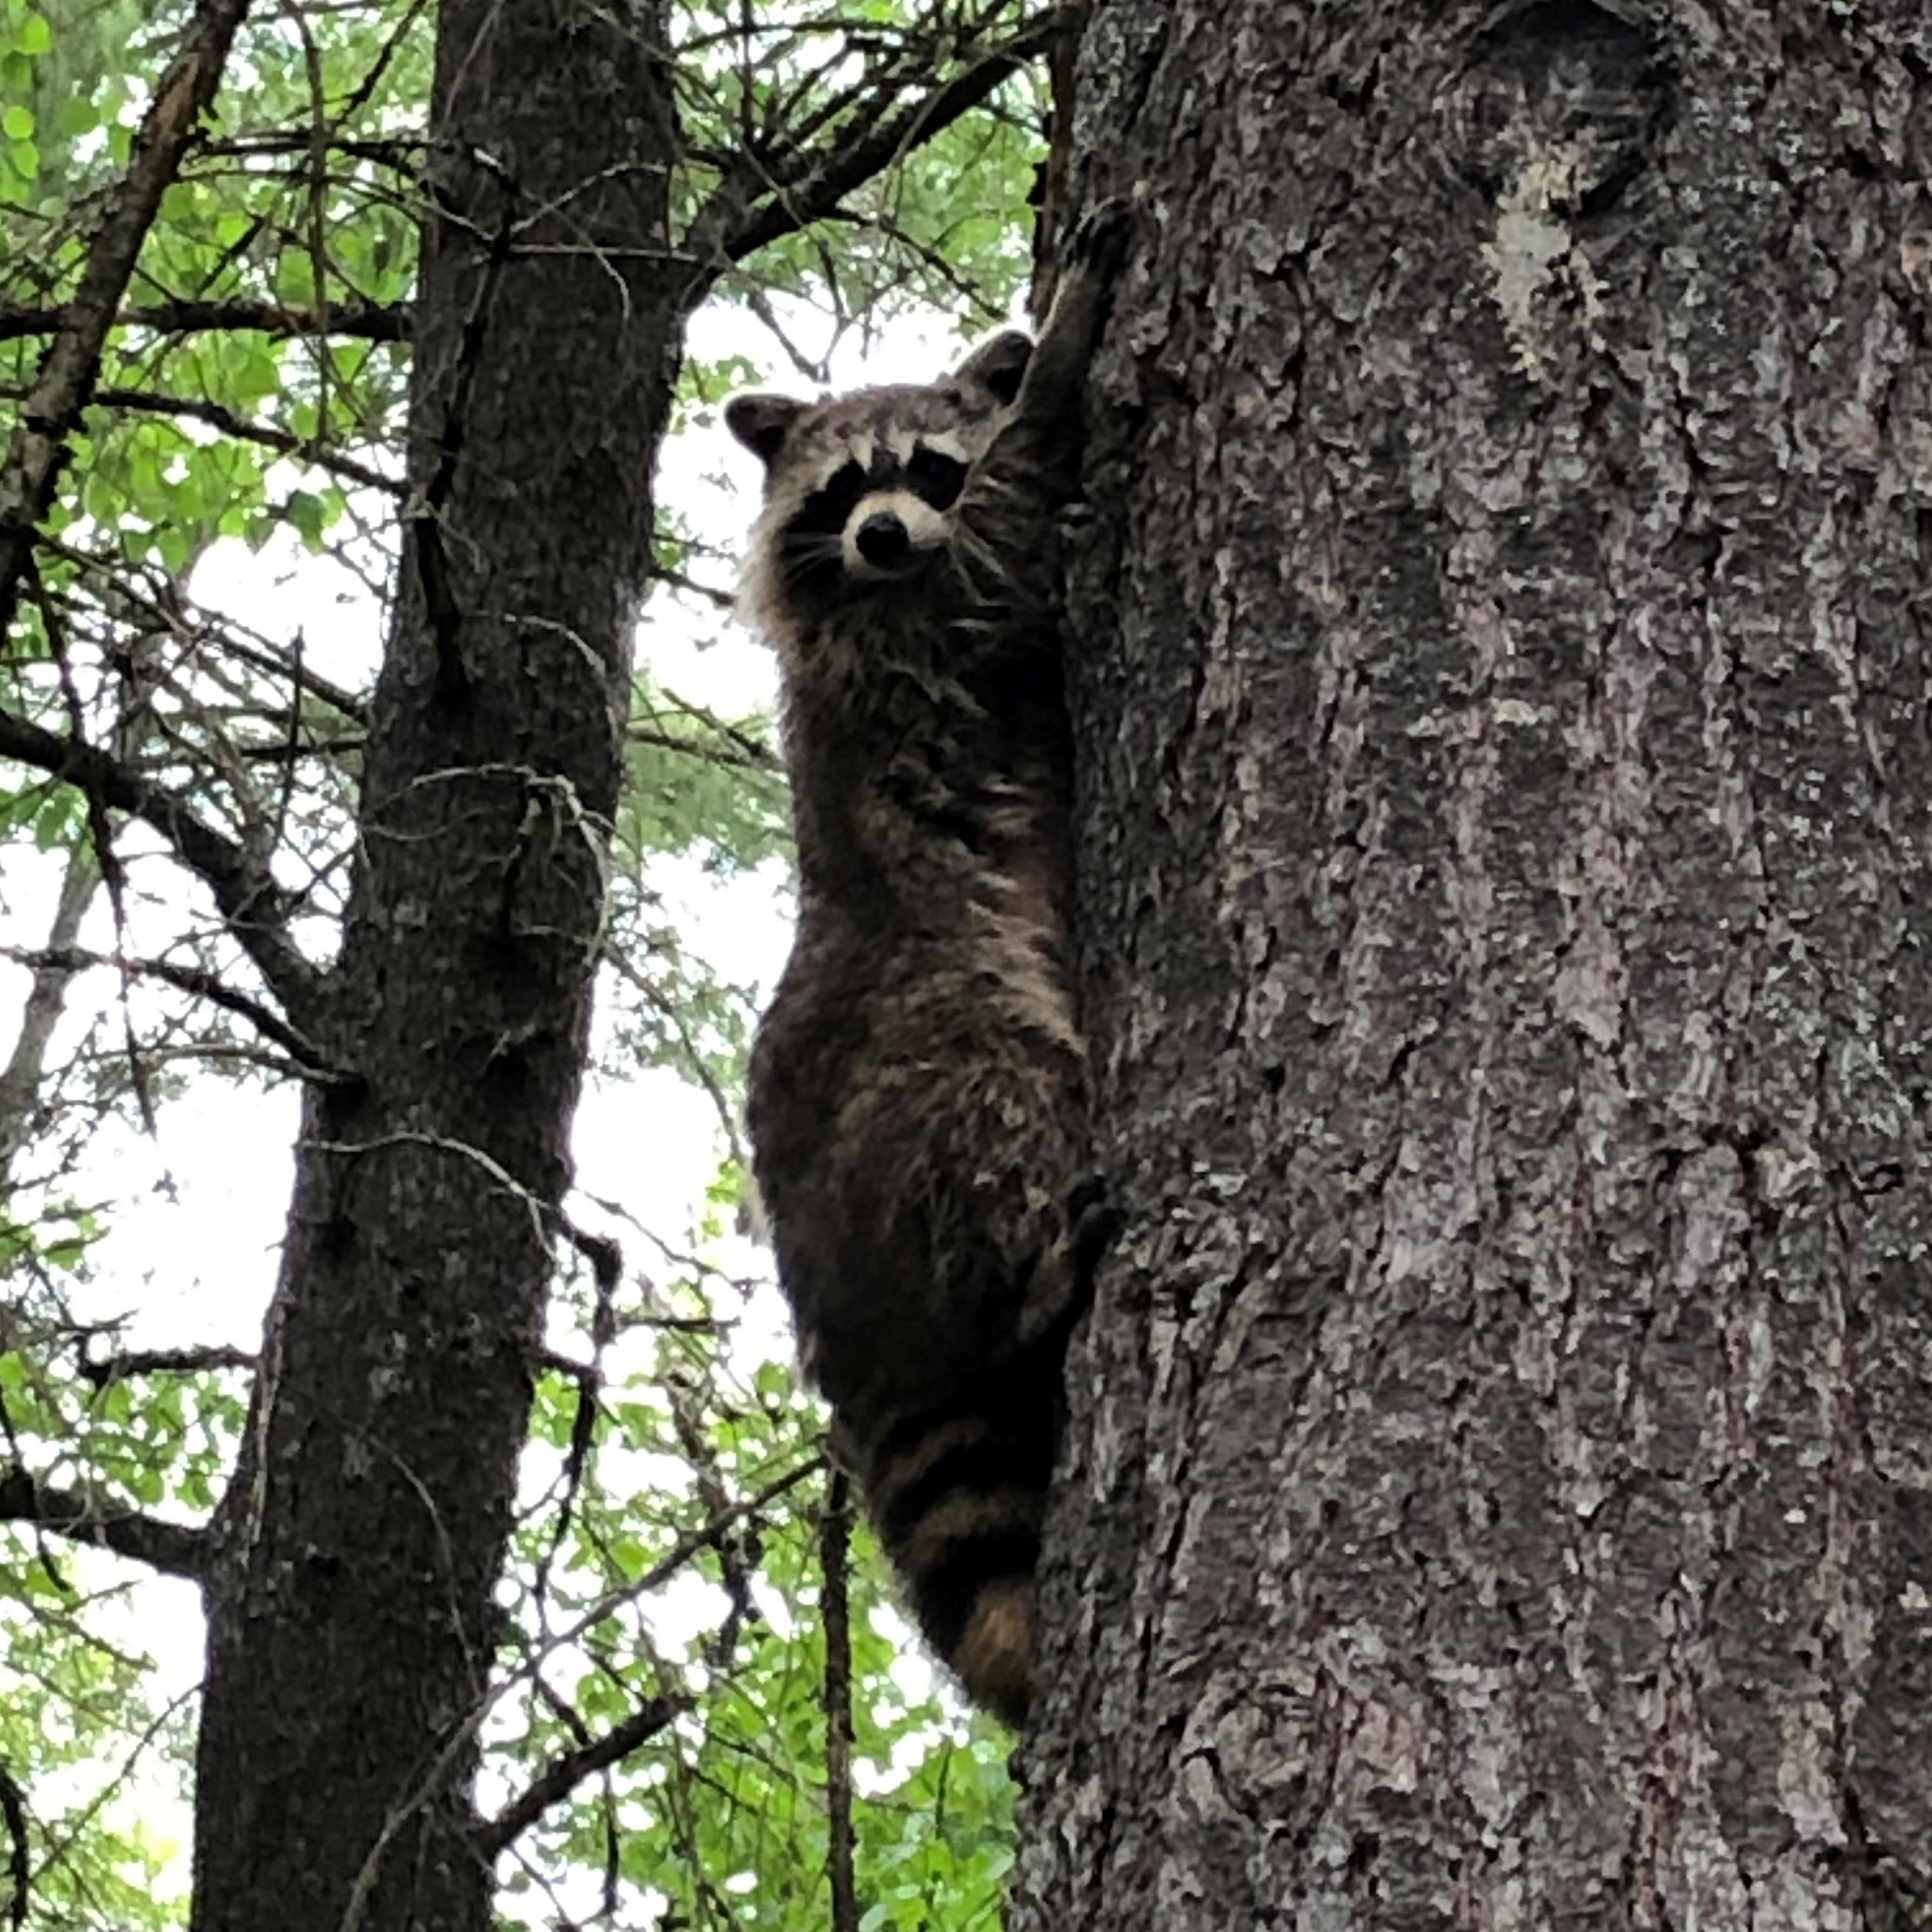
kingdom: Animalia
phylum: Chordata
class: Mammalia
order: Carnivora
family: Procyonidae
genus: Procyon
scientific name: Procyon lotor
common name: Raccoon
